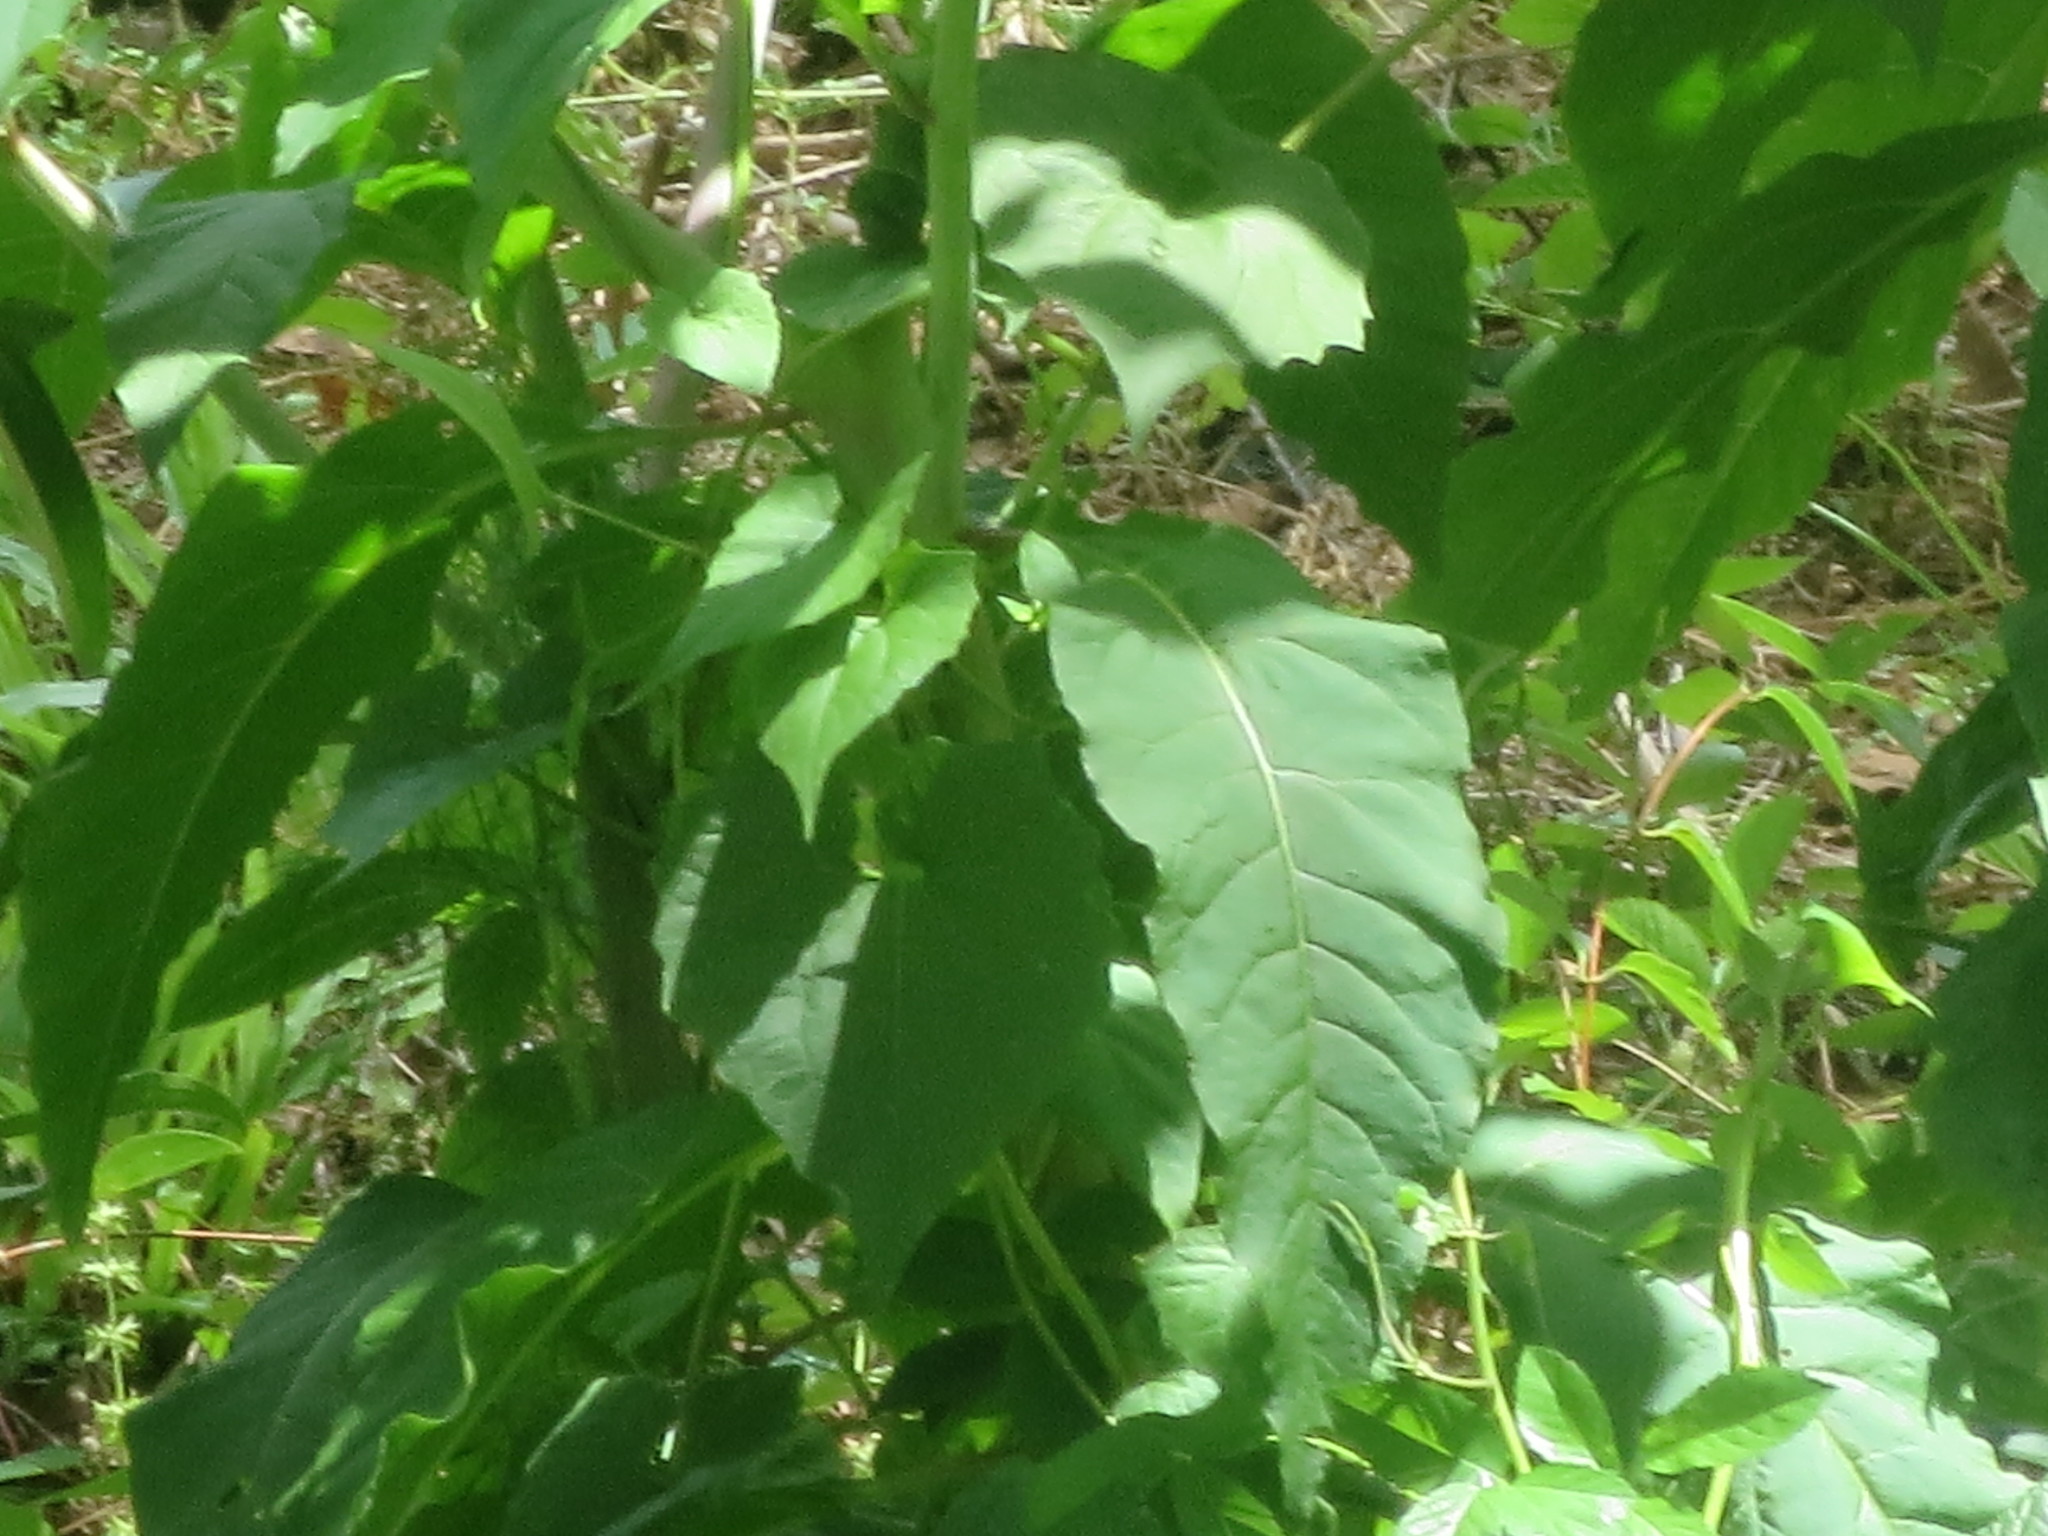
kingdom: Plantae
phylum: Tracheophyta
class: Magnoliopsida
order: Caryophyllales
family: Phytolaccaceae
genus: Phytolacca
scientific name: Phytolacca americana
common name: American pokeweed
